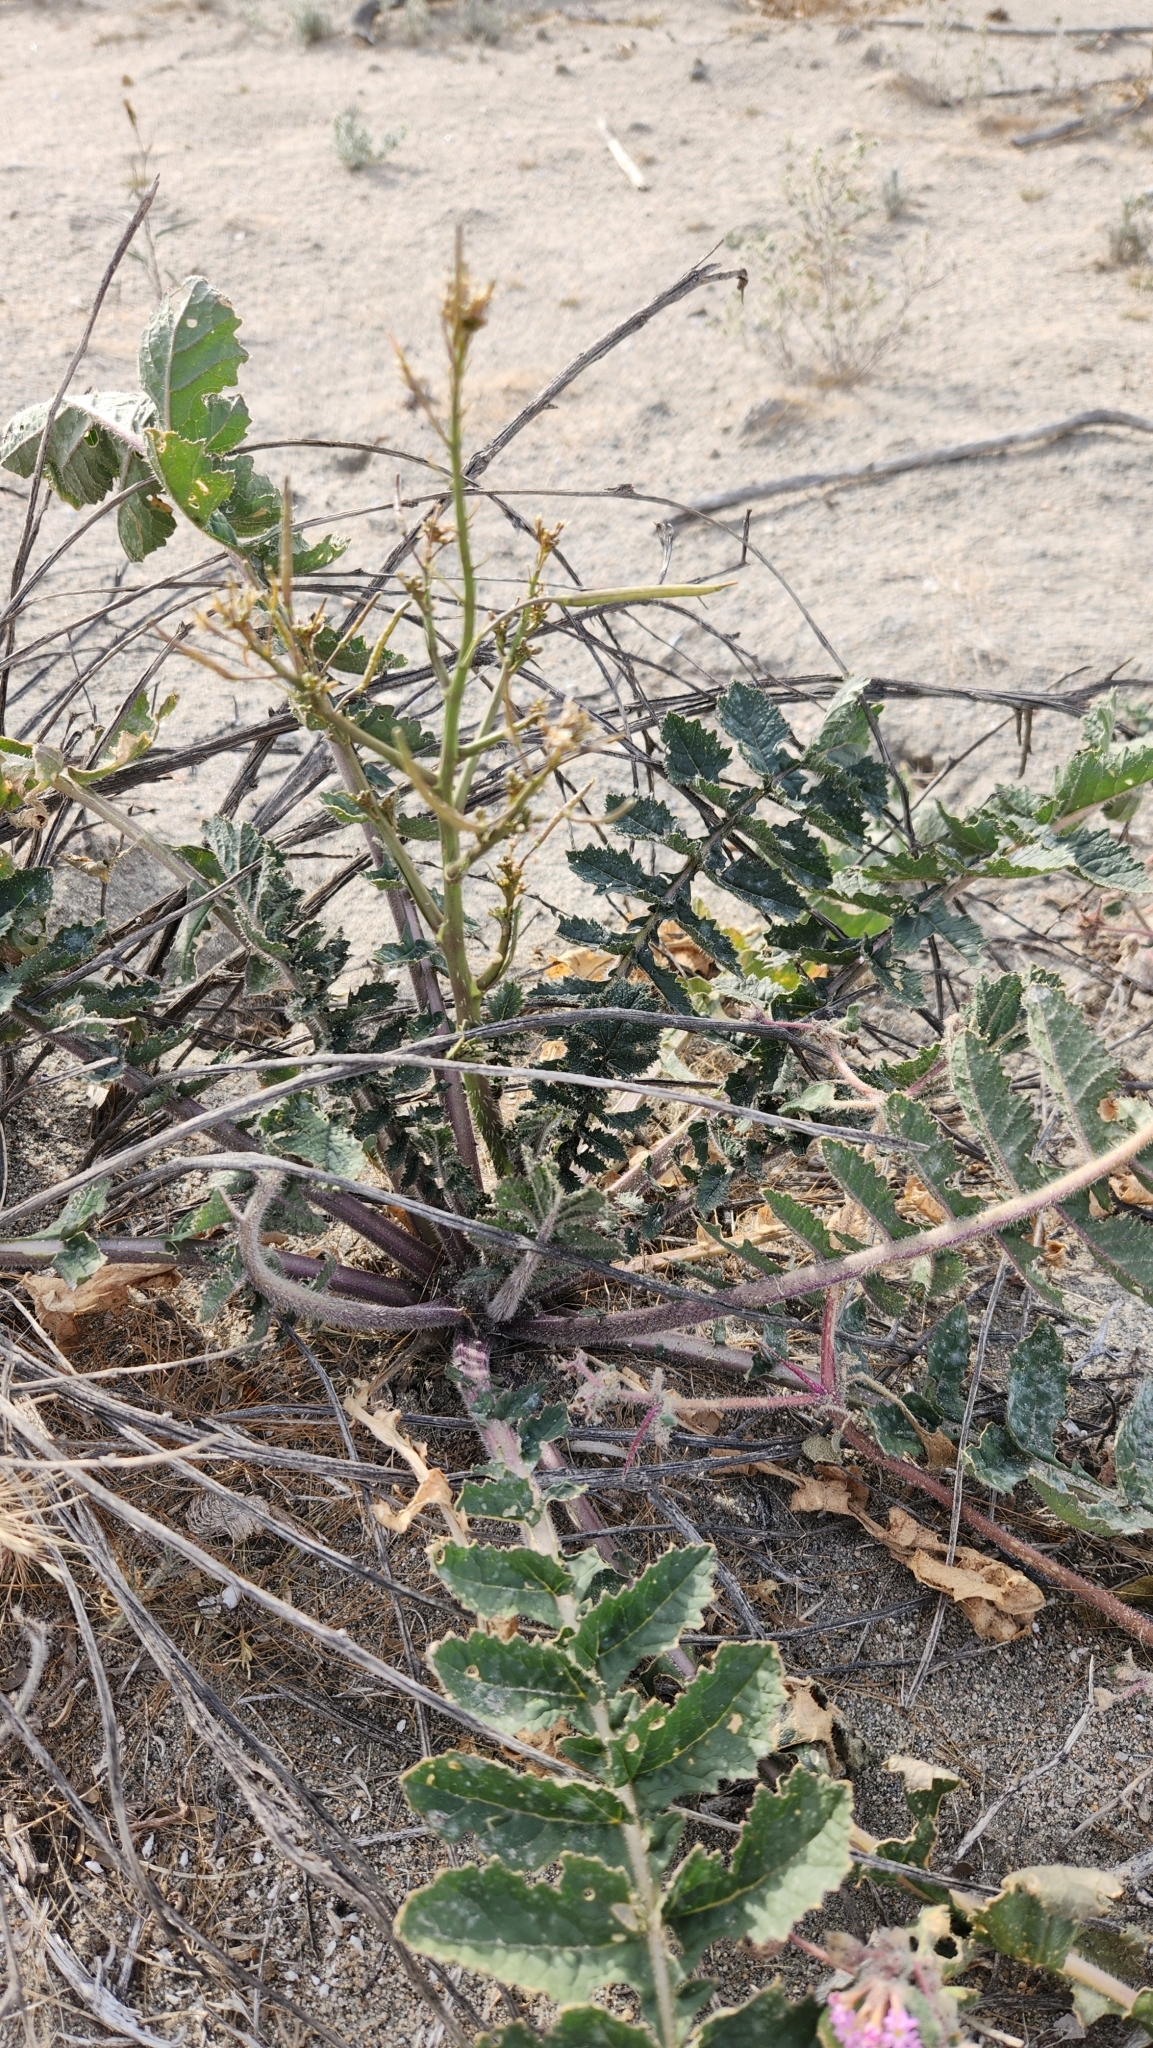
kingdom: Plantae
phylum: Tracheophyta
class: Magnoliopsida
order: Brassicales
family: Brassicaceae
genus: Brassica
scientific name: Brassica tournefortii
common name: Pale cabbage
